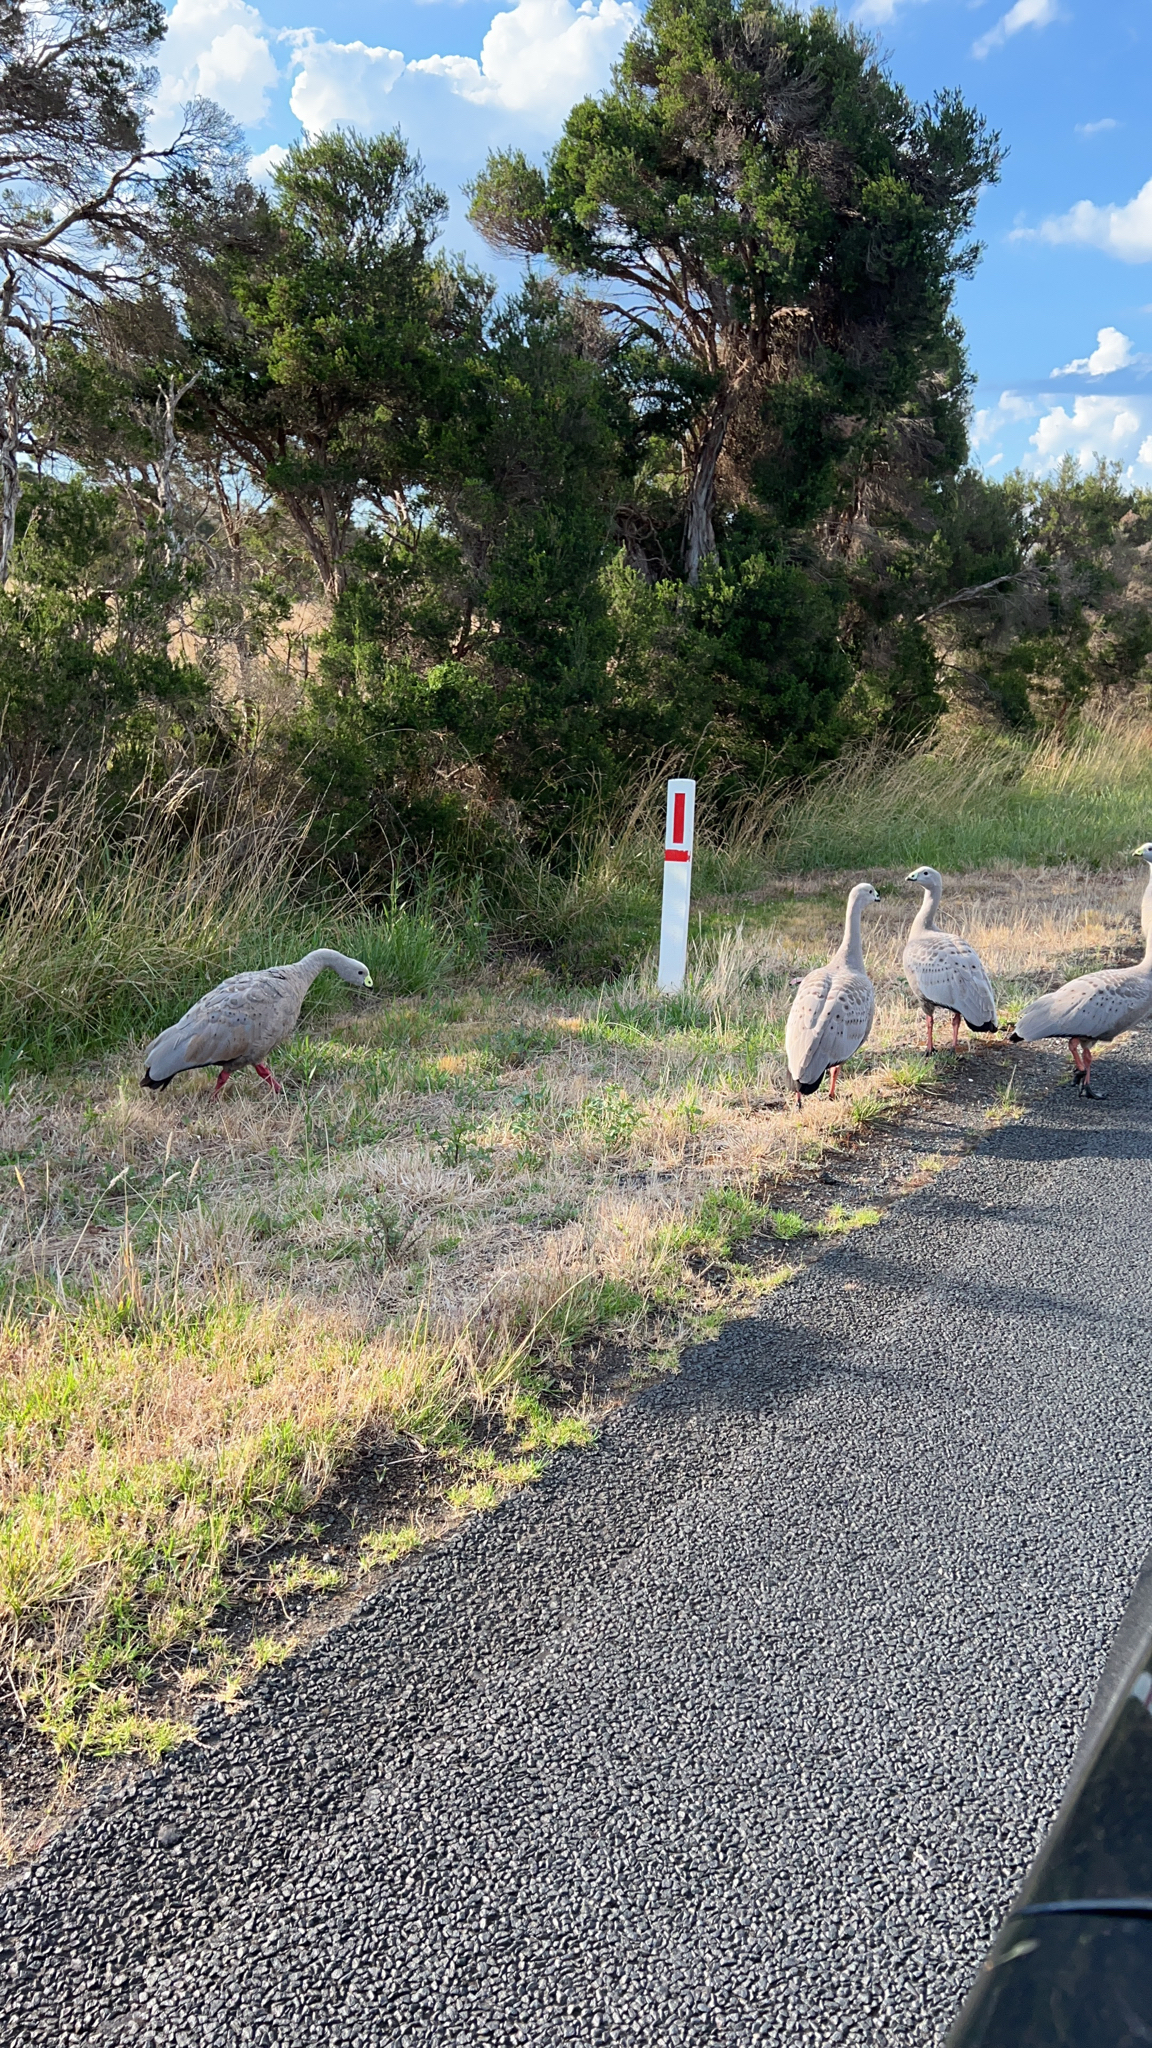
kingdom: Animalia
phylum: Chordata
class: Aves
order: Anseriformes
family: Anatidae
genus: Cereopsis
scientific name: Cereopsis novaehollandiae
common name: Cape barren goose
